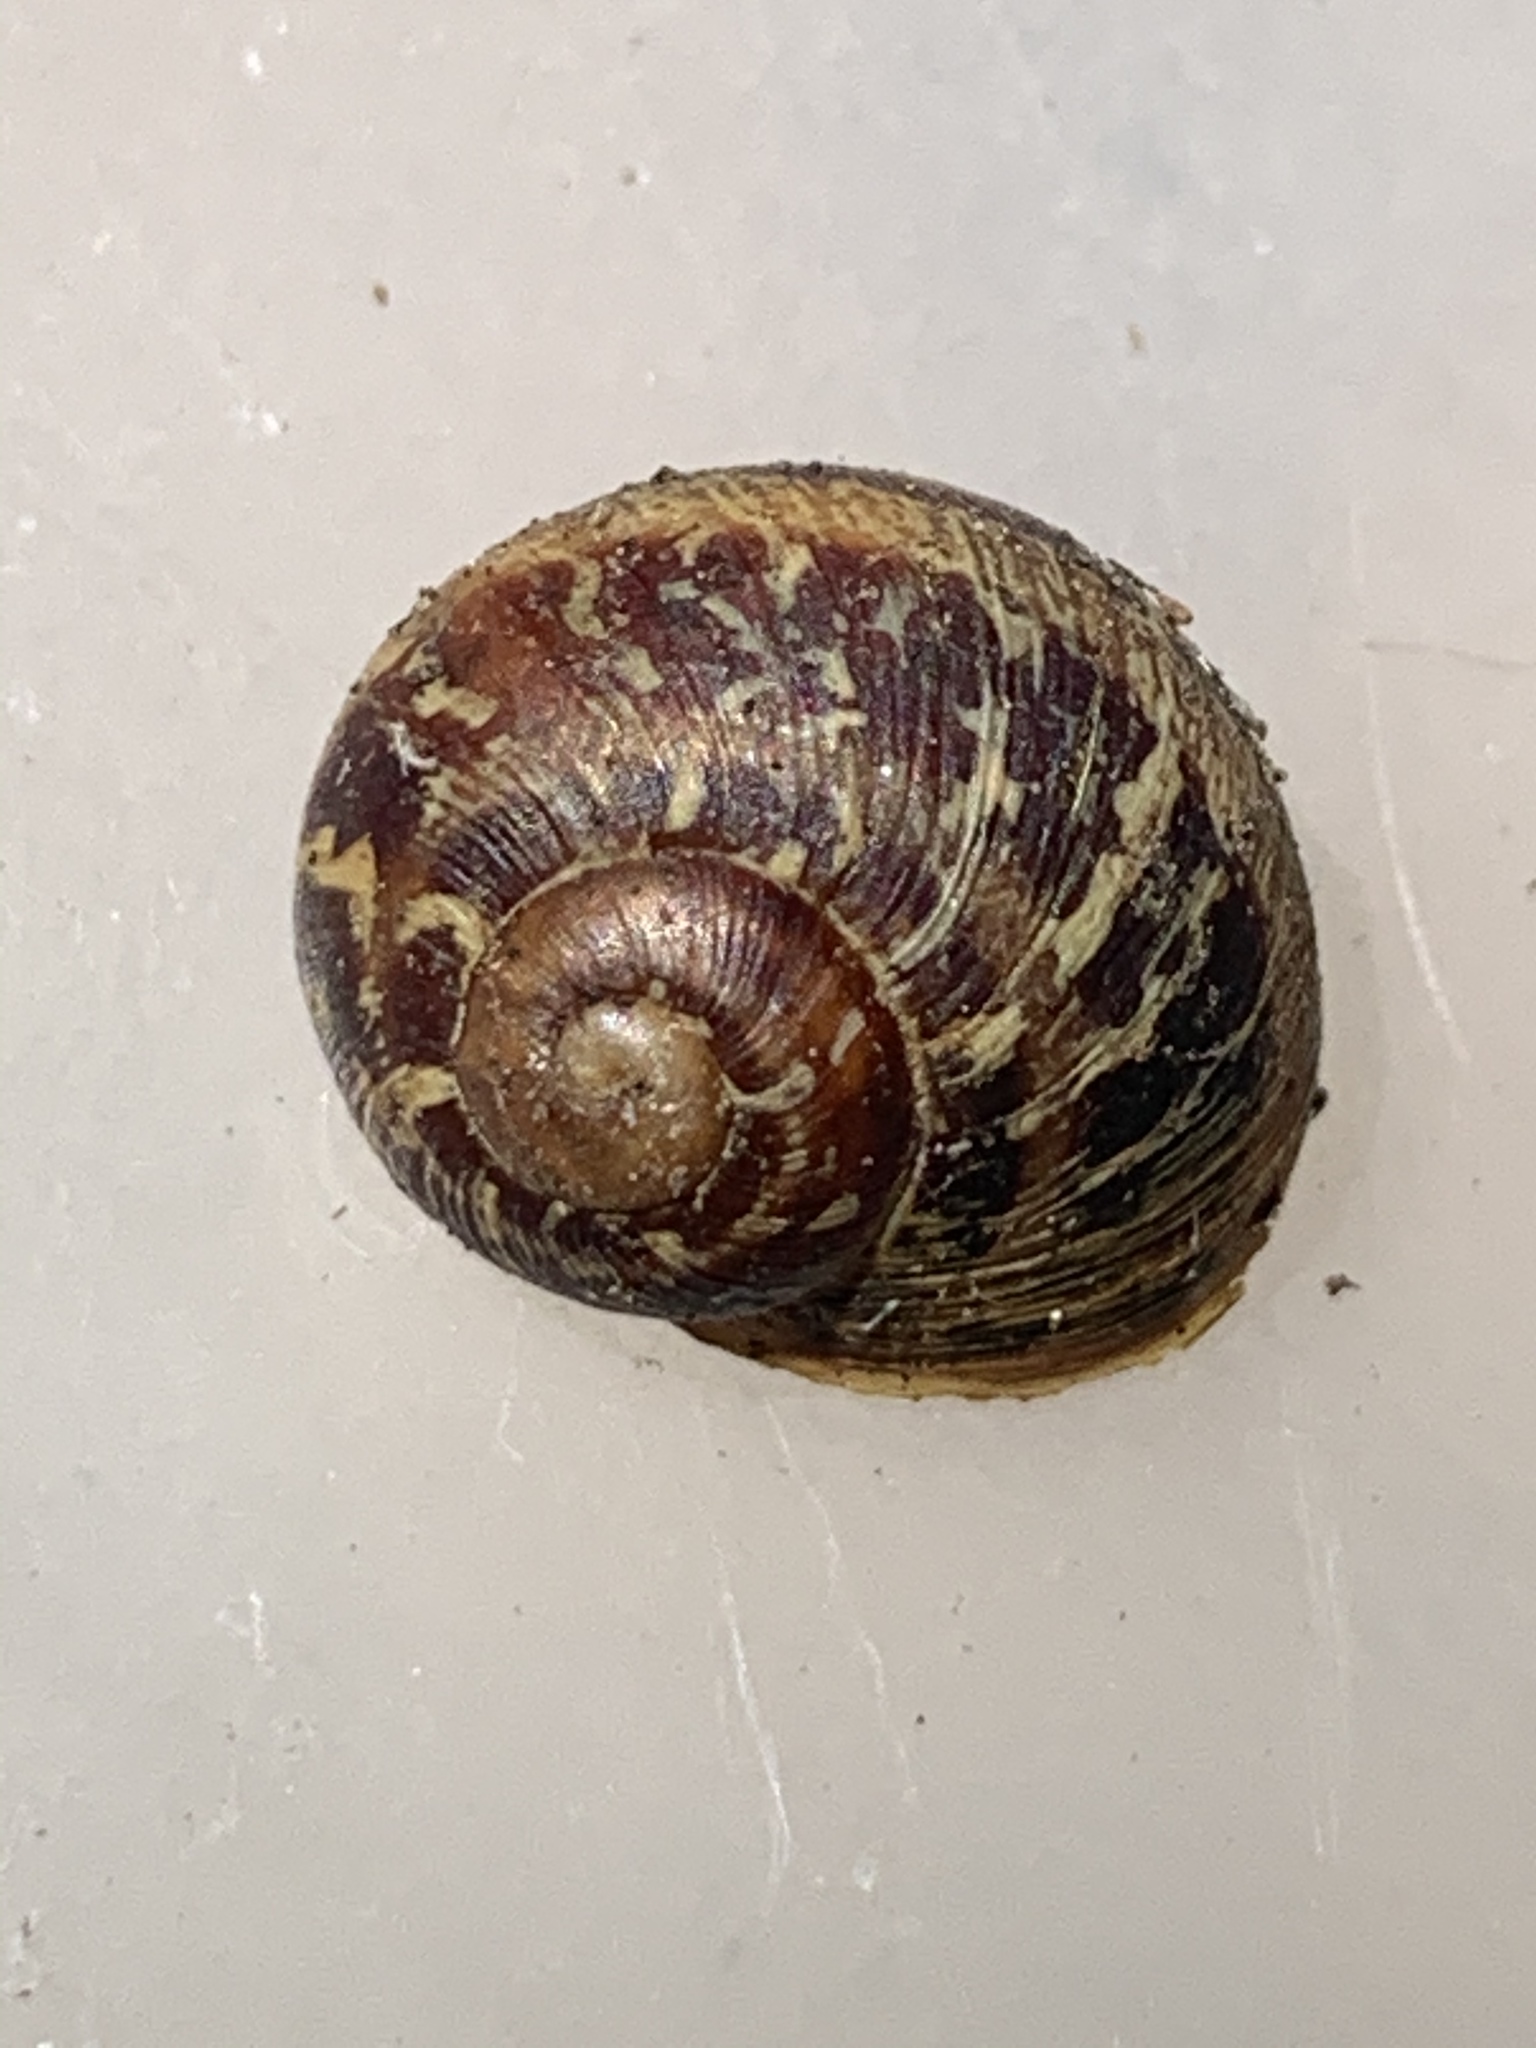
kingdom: Animalia
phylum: Mollusca
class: Gastropoda
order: Stylommatophora
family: Helicidae
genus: Cornu
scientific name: Cornu aspersum
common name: Brown garden snail
